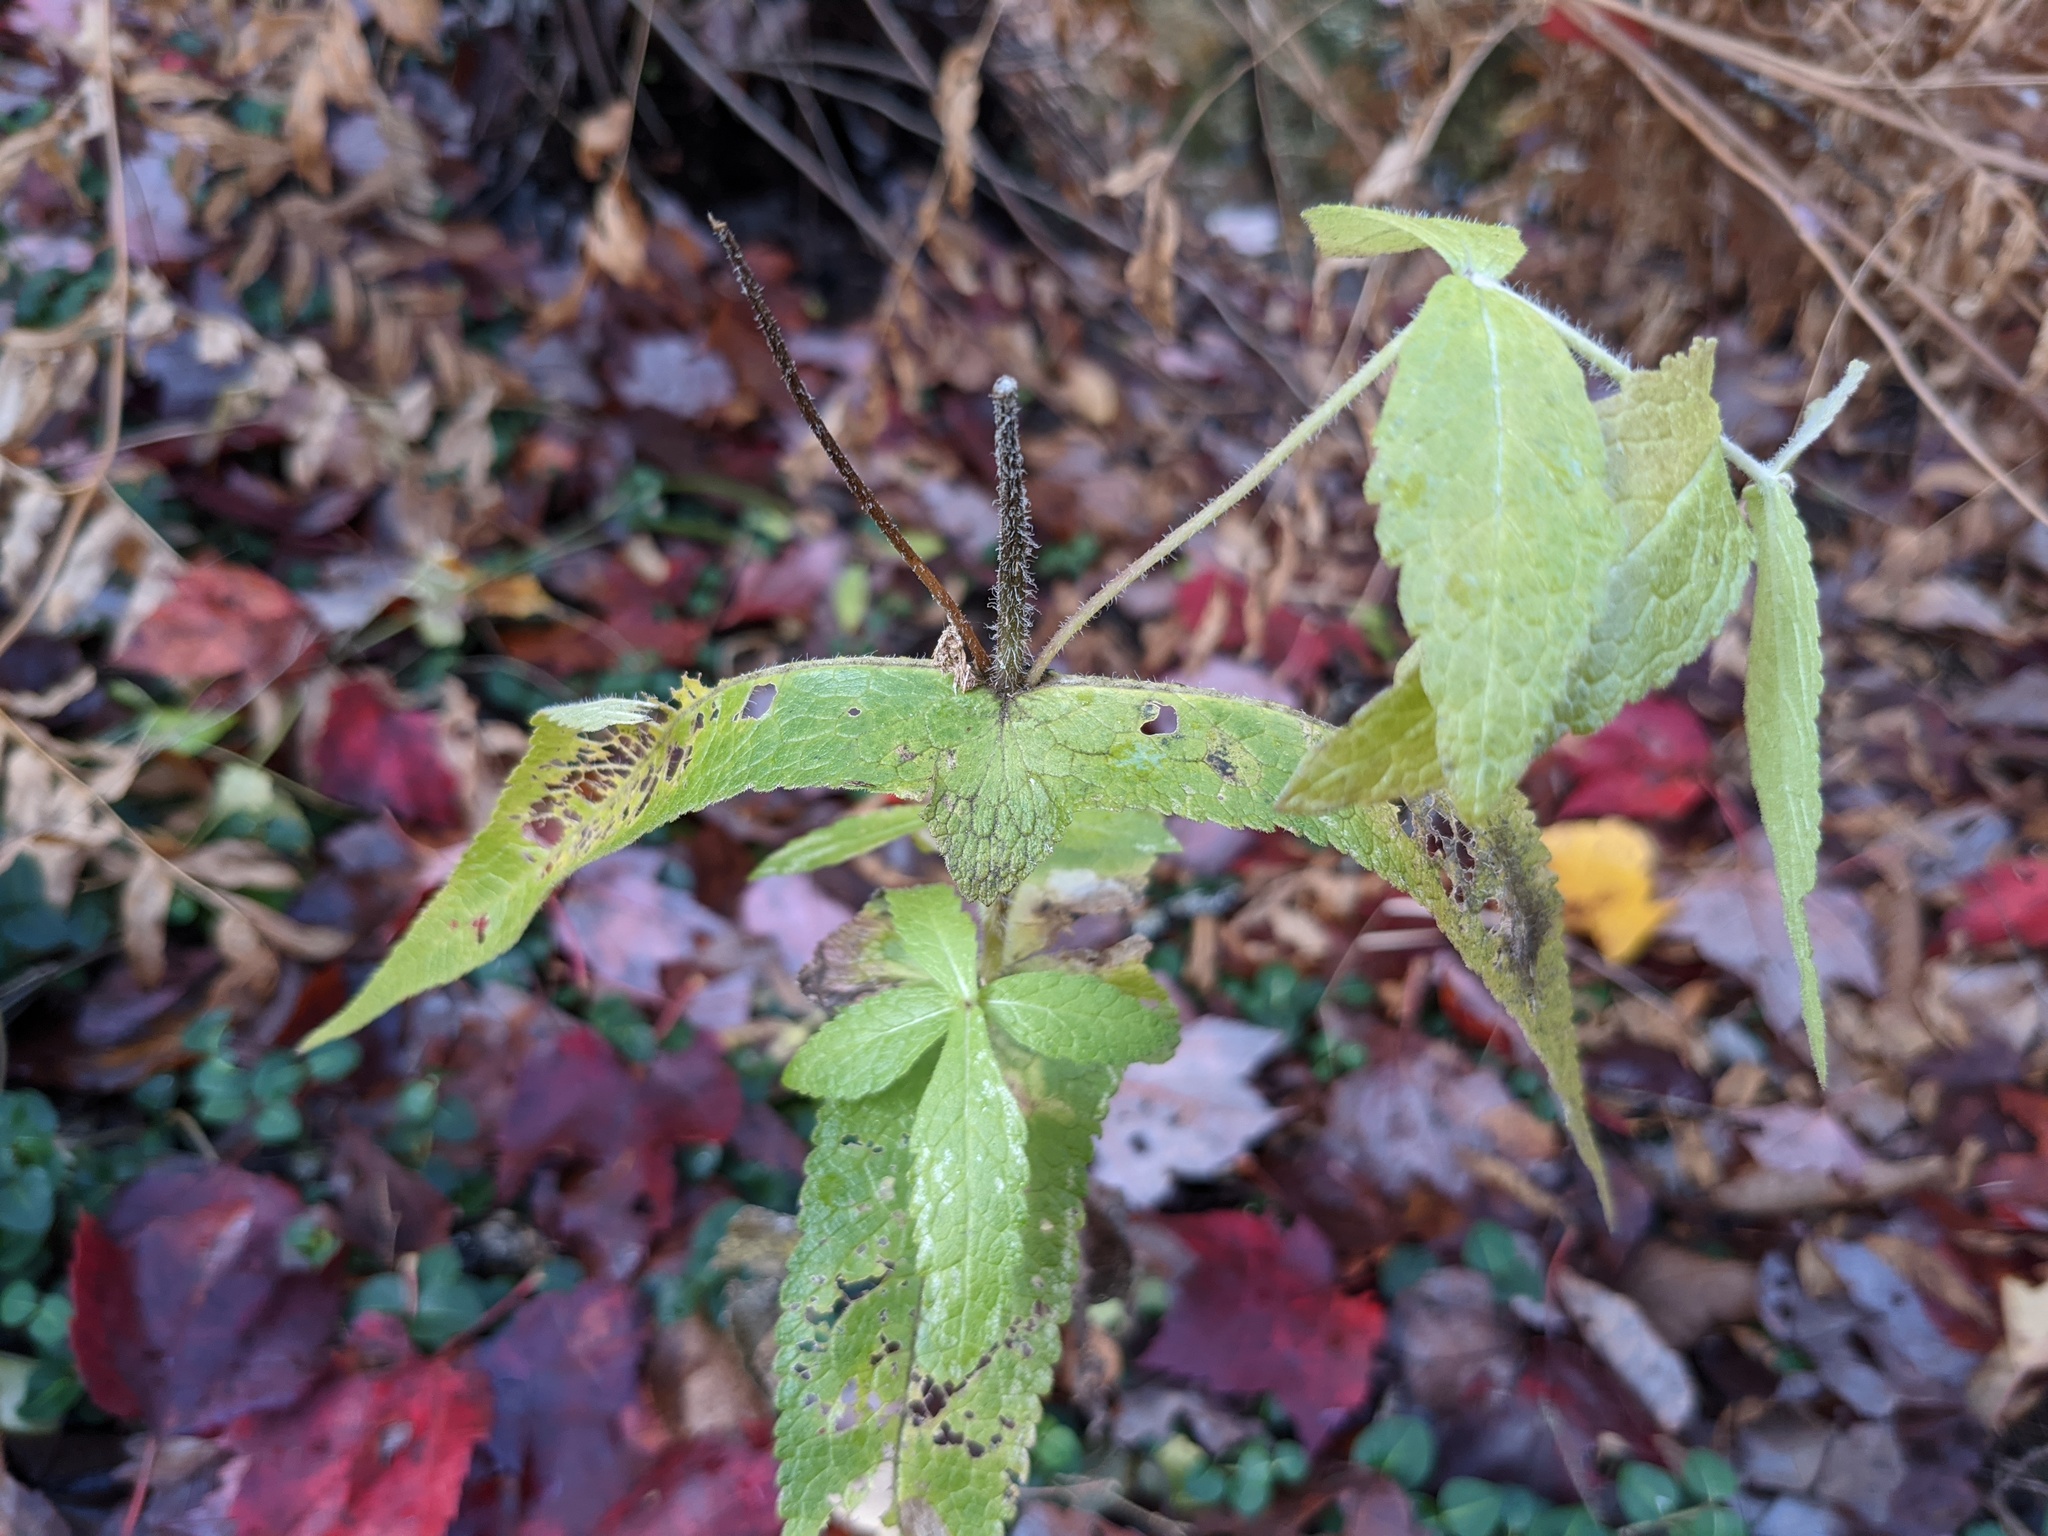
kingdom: Plantae
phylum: Tracheophyta
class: Magnoliopsida
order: Asterales
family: Asteraceae
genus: Eupatorium
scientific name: Eupatorium perfoliatum
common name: Boneset
